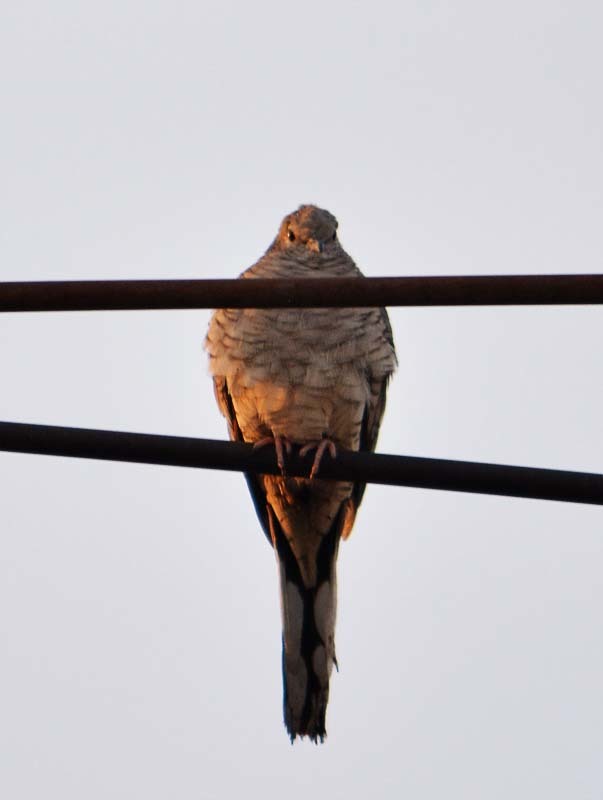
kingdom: Animalia
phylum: Chordata
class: Aves
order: Columbiformes
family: Columbidae
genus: Columbina
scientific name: Columbina inca
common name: Inca dove
